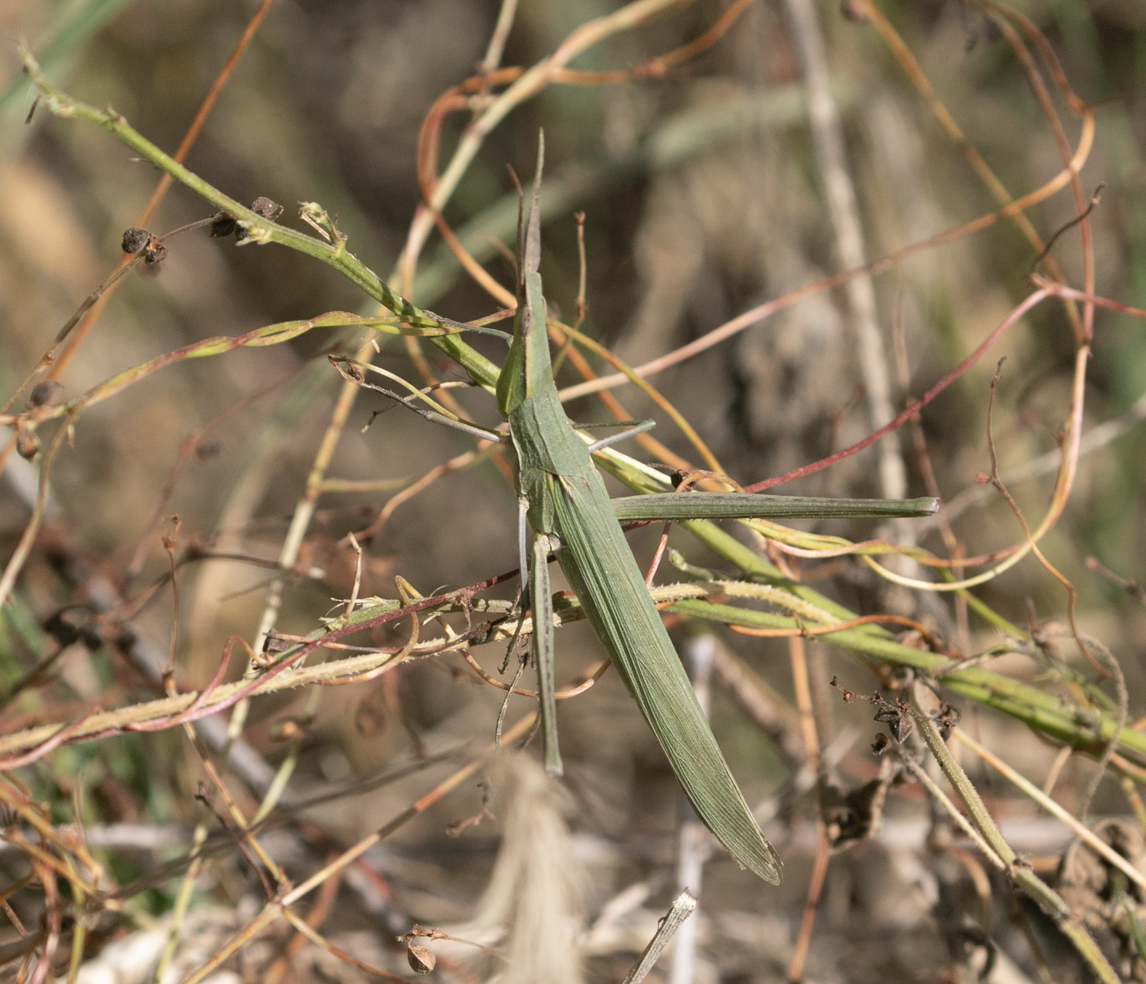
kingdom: Animalia
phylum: Arthropoda
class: Insecta
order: Orthoptera
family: Acrididae
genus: Acrida
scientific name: Acrida ungarica
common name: Common cone-headed grasshopper
